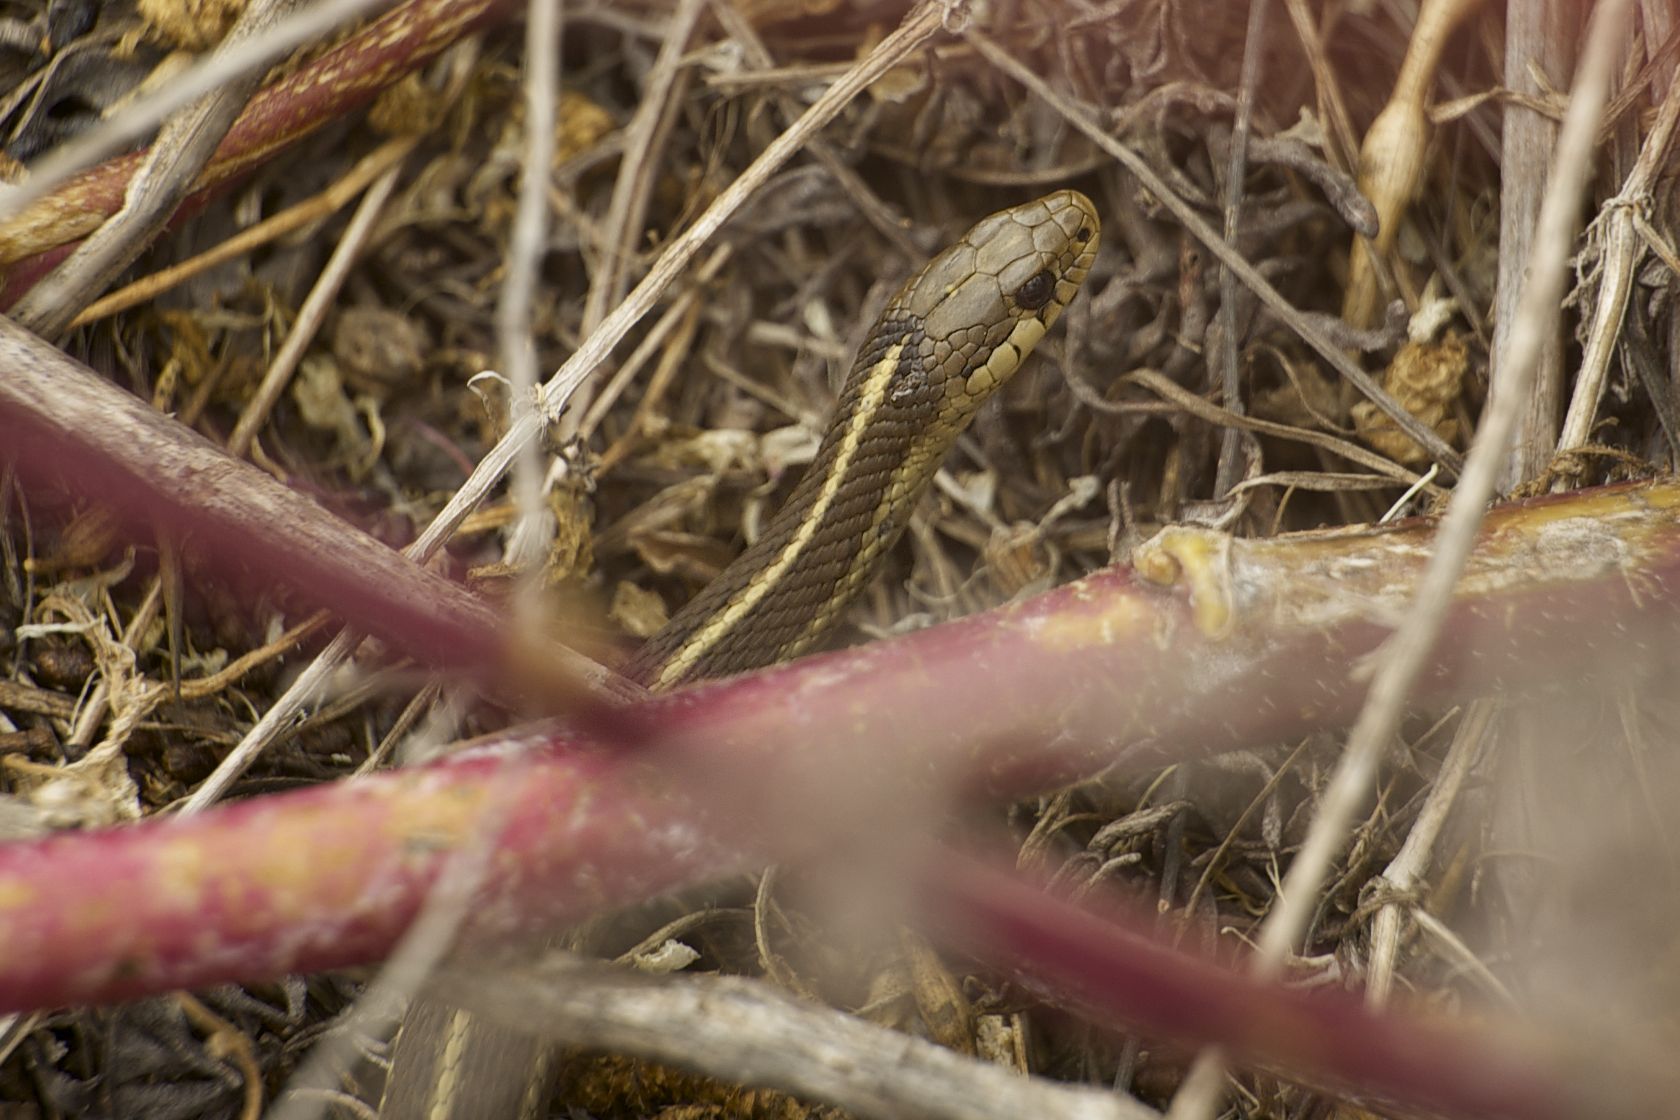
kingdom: Animalia
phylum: Chordata
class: Squamata
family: Colubridae
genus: Thamnophis
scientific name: Thamnophis elegans
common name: Western terrestrial garter snake
